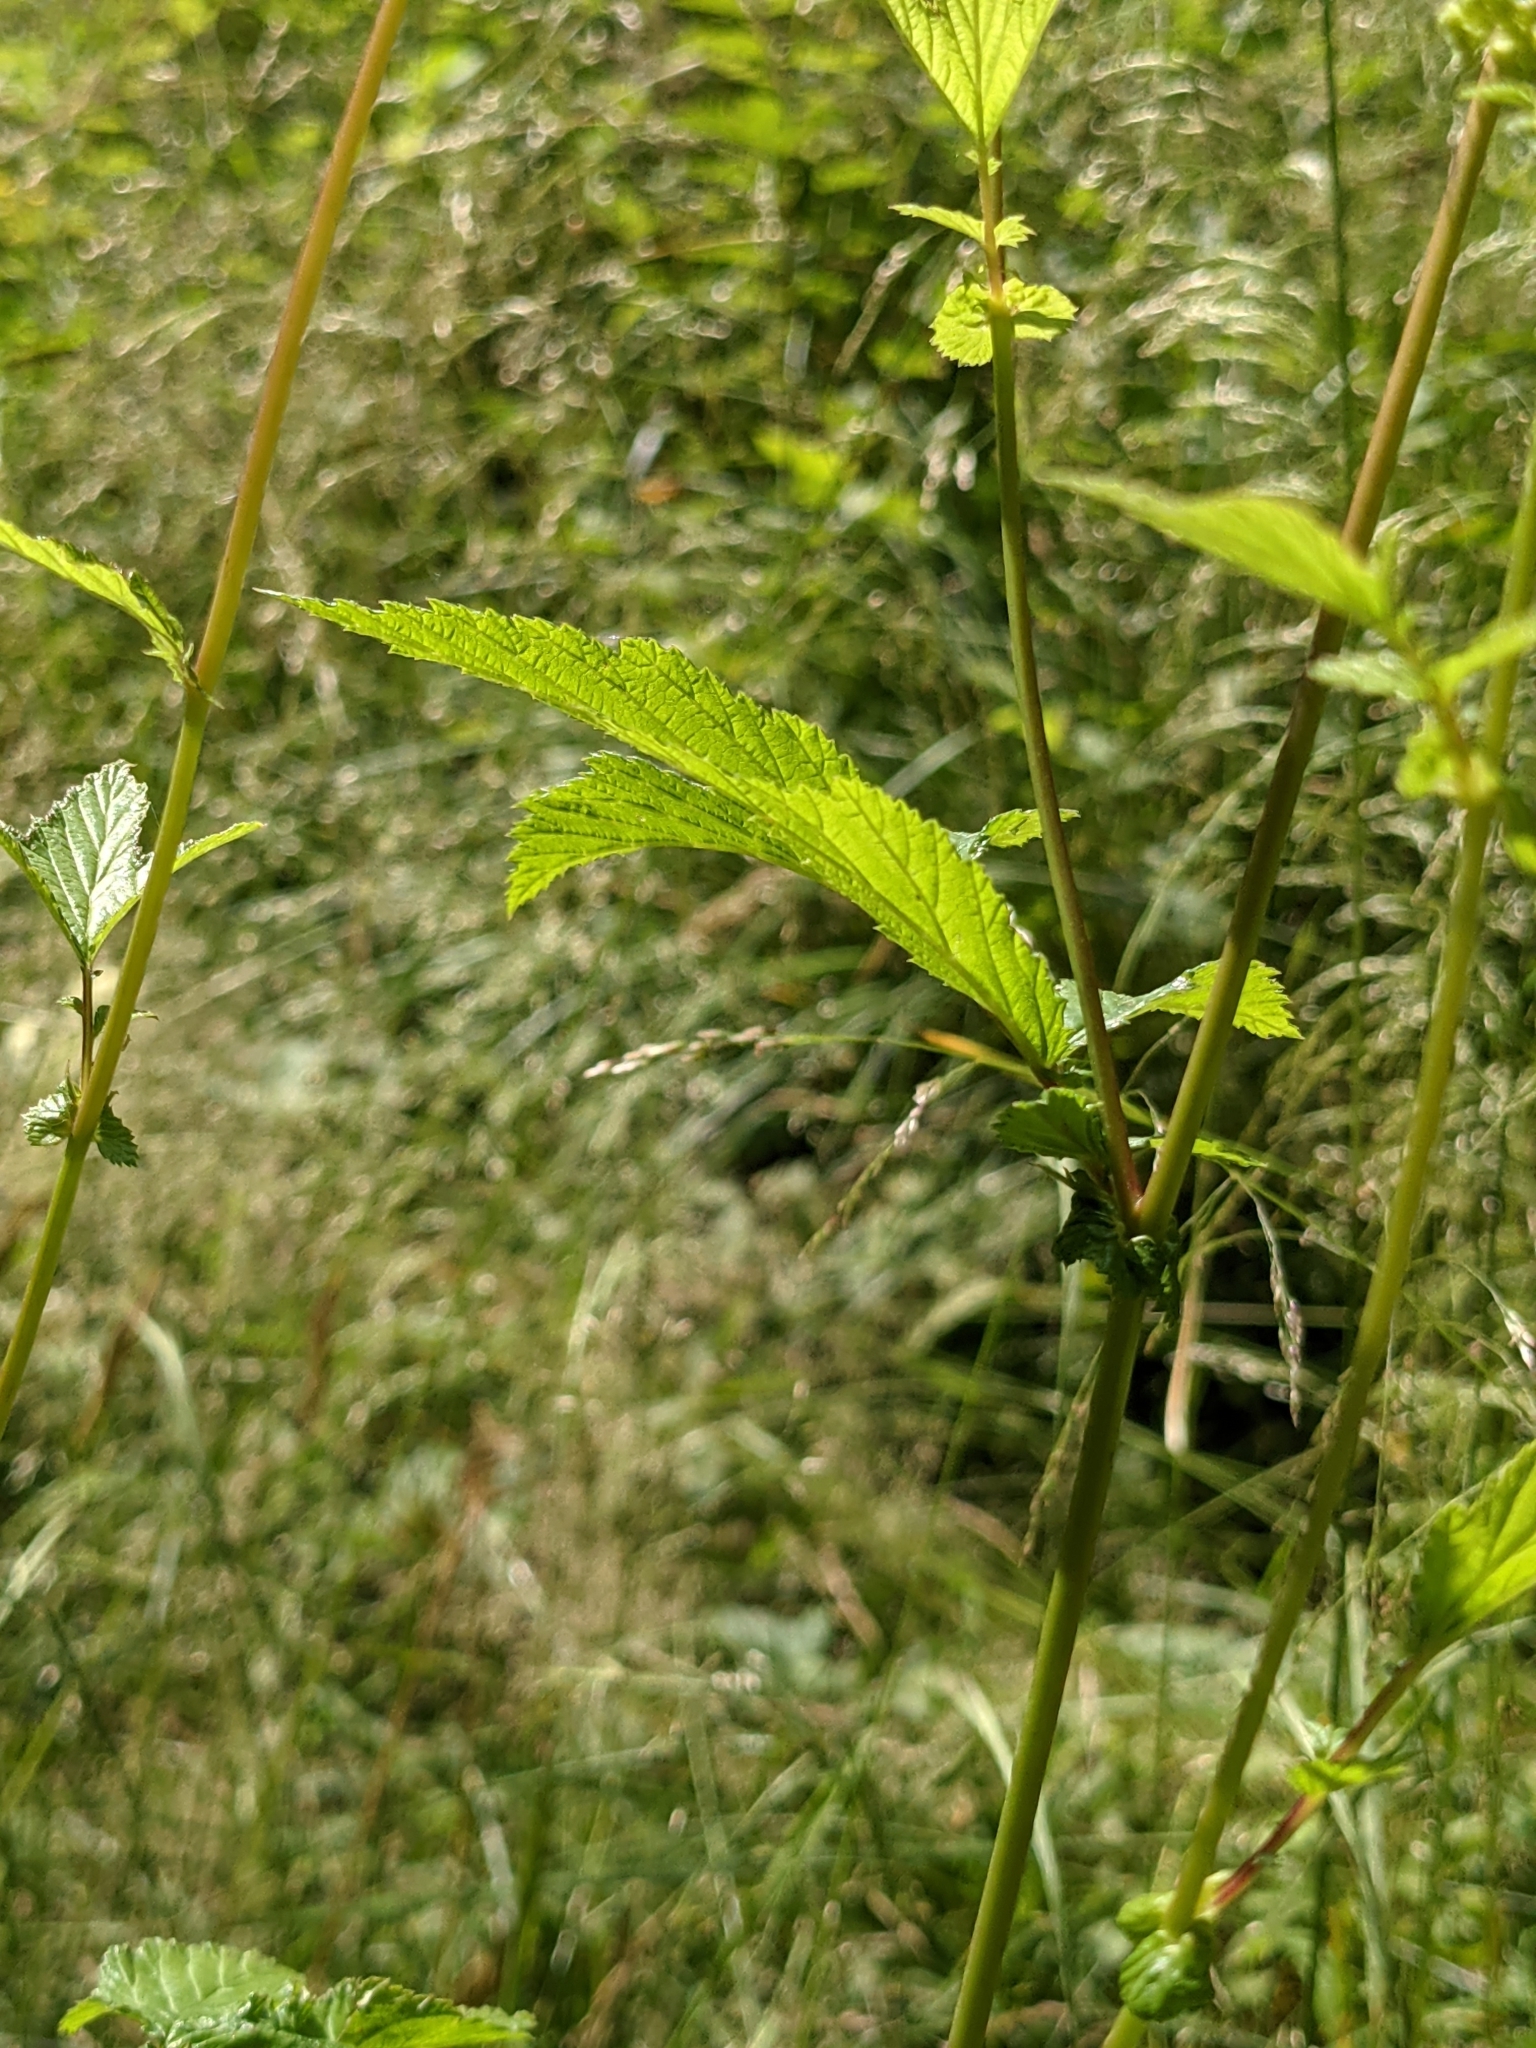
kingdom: Plantae
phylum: Tracheophyta
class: Magnoliopsida
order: Rosales
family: Rosaceae
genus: Filipendula
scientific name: Filipendula ulmaria
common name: Meadowsweet
